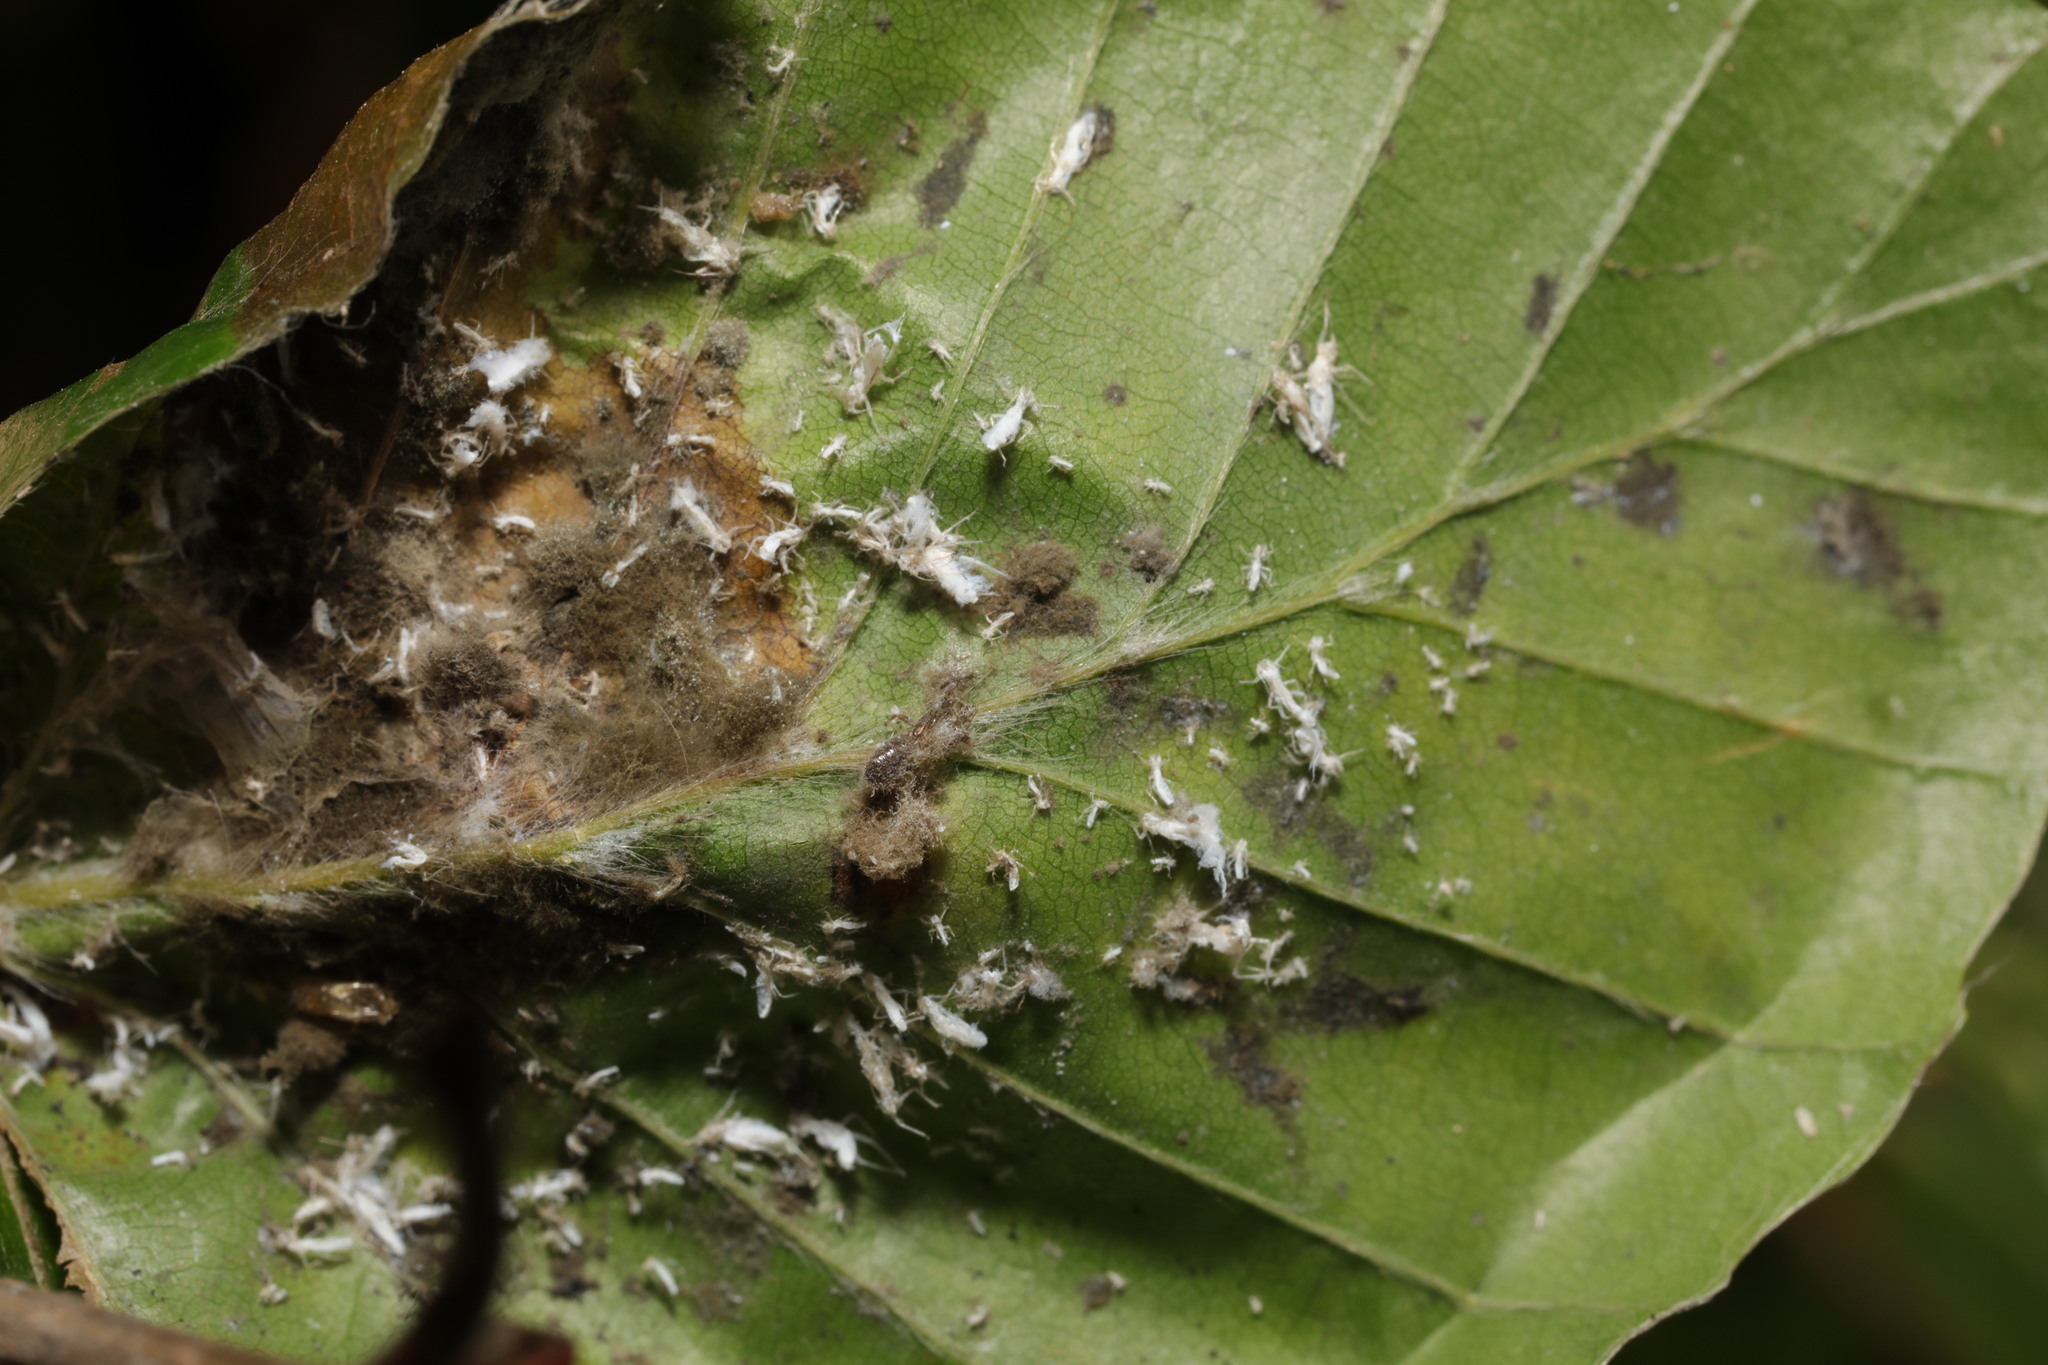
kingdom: Animalia
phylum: Arthropoda
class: Insecta
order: Hemiptera
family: Aphididae
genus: Phyllaphis
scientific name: Phyllaphis fagi
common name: Beech aphid
